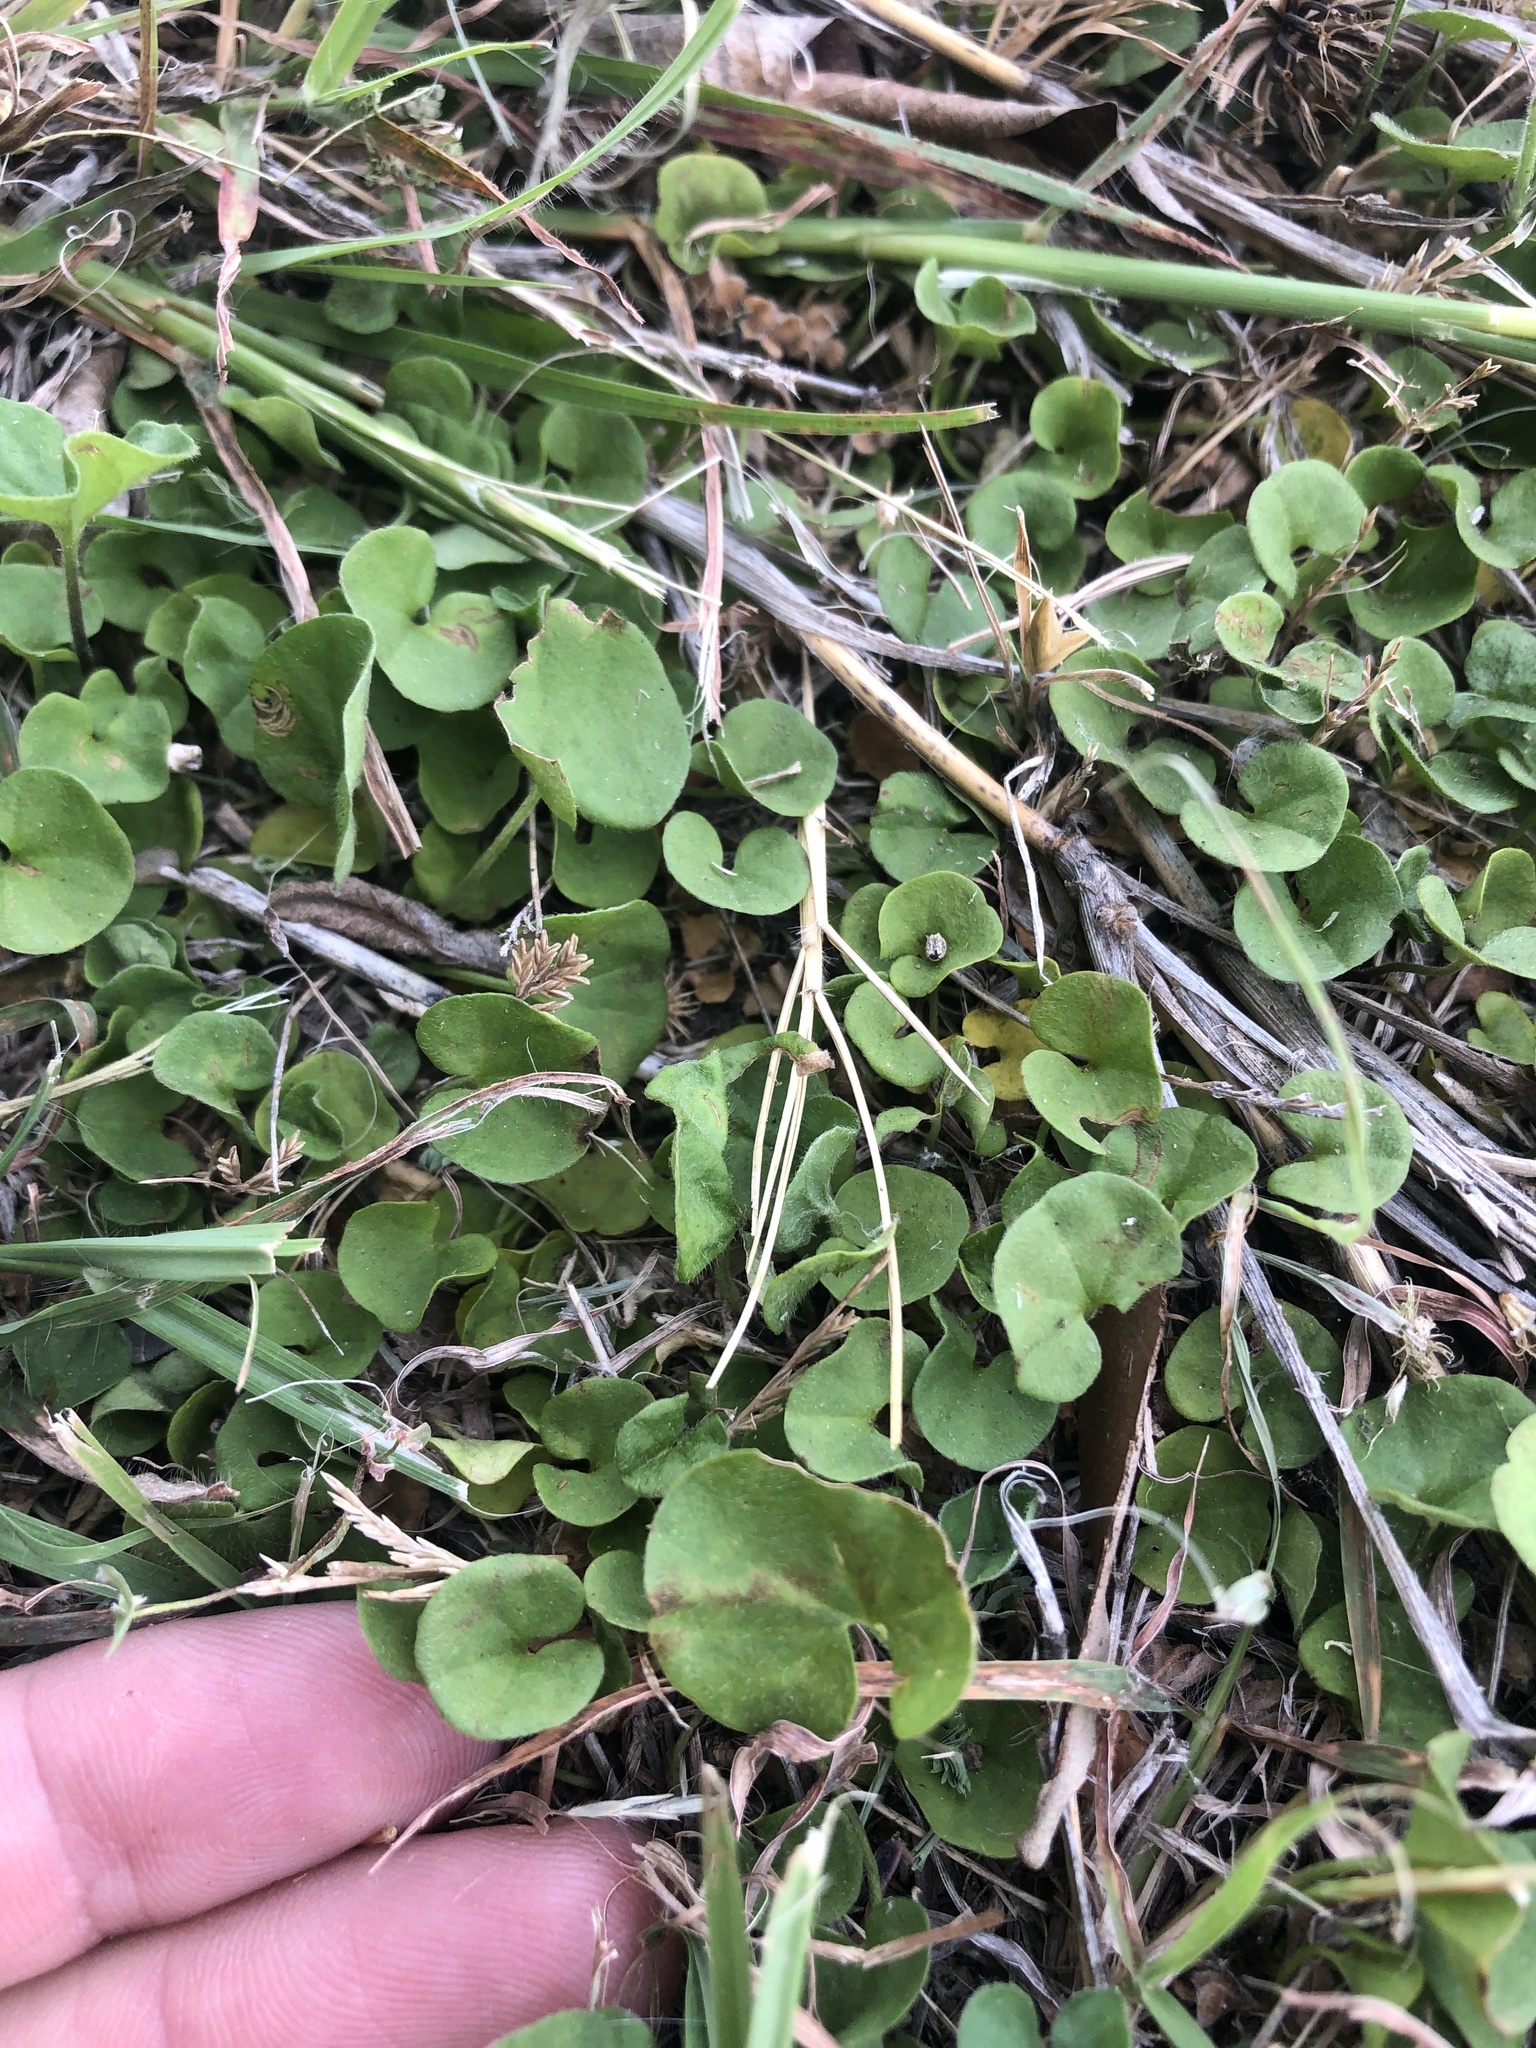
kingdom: Plantae
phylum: Tracheophyta
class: Magnoliopsida
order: Solanales
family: Convolvulaceae
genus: Dichondra
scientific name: Dichondra carolinensis
